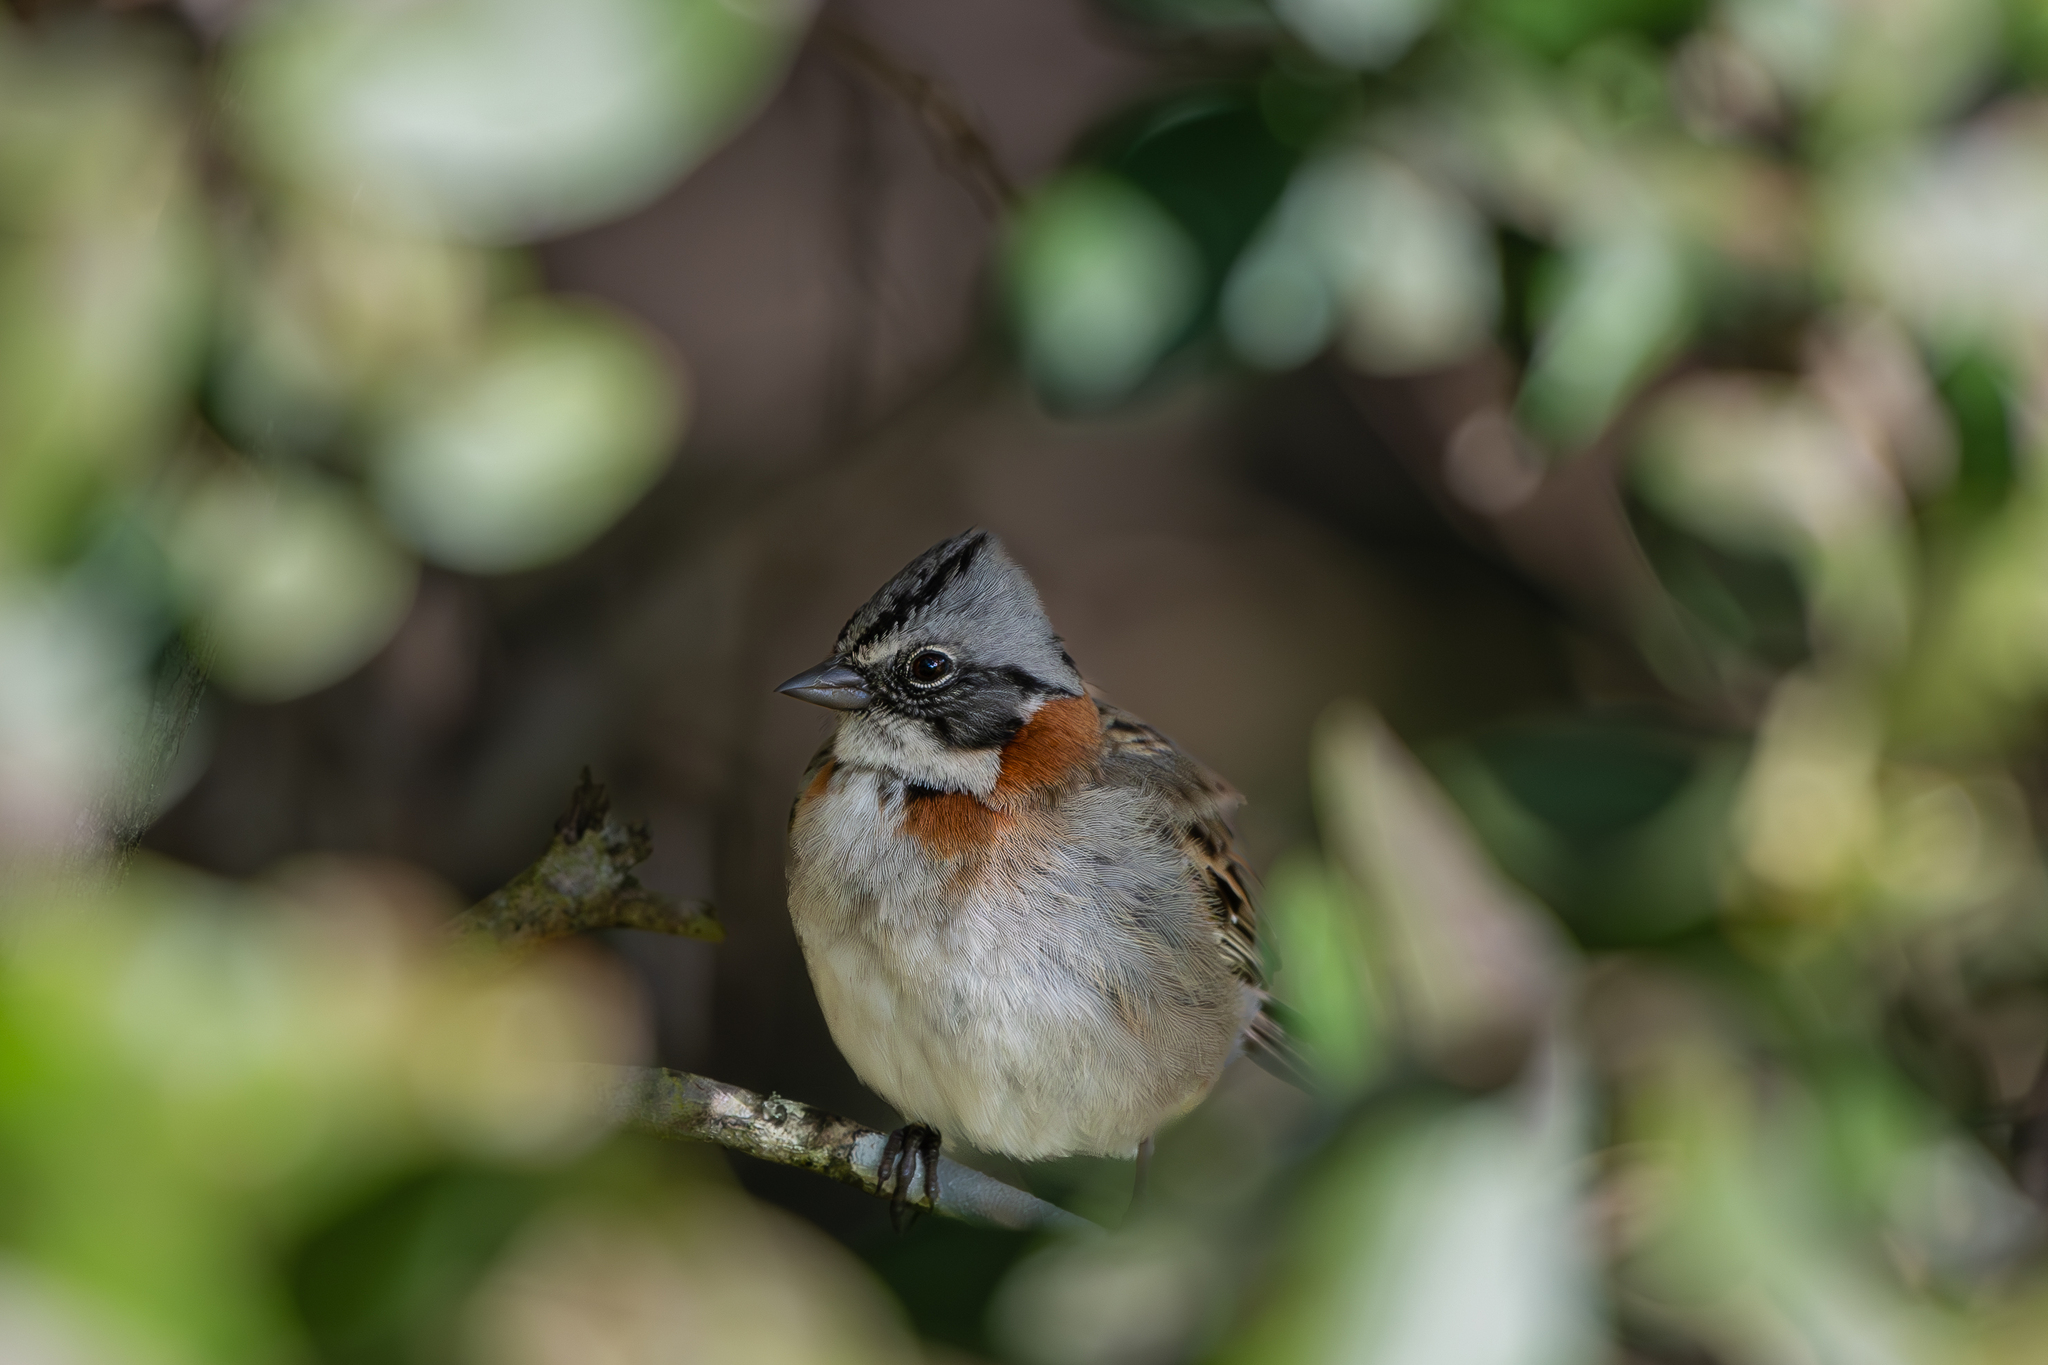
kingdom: Animalia
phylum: Chordata
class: Aves
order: Passeriformes
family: Passerellidae
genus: Zonotrichia
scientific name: Zonotrichia capensis
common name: Rufous-collared sparrow
